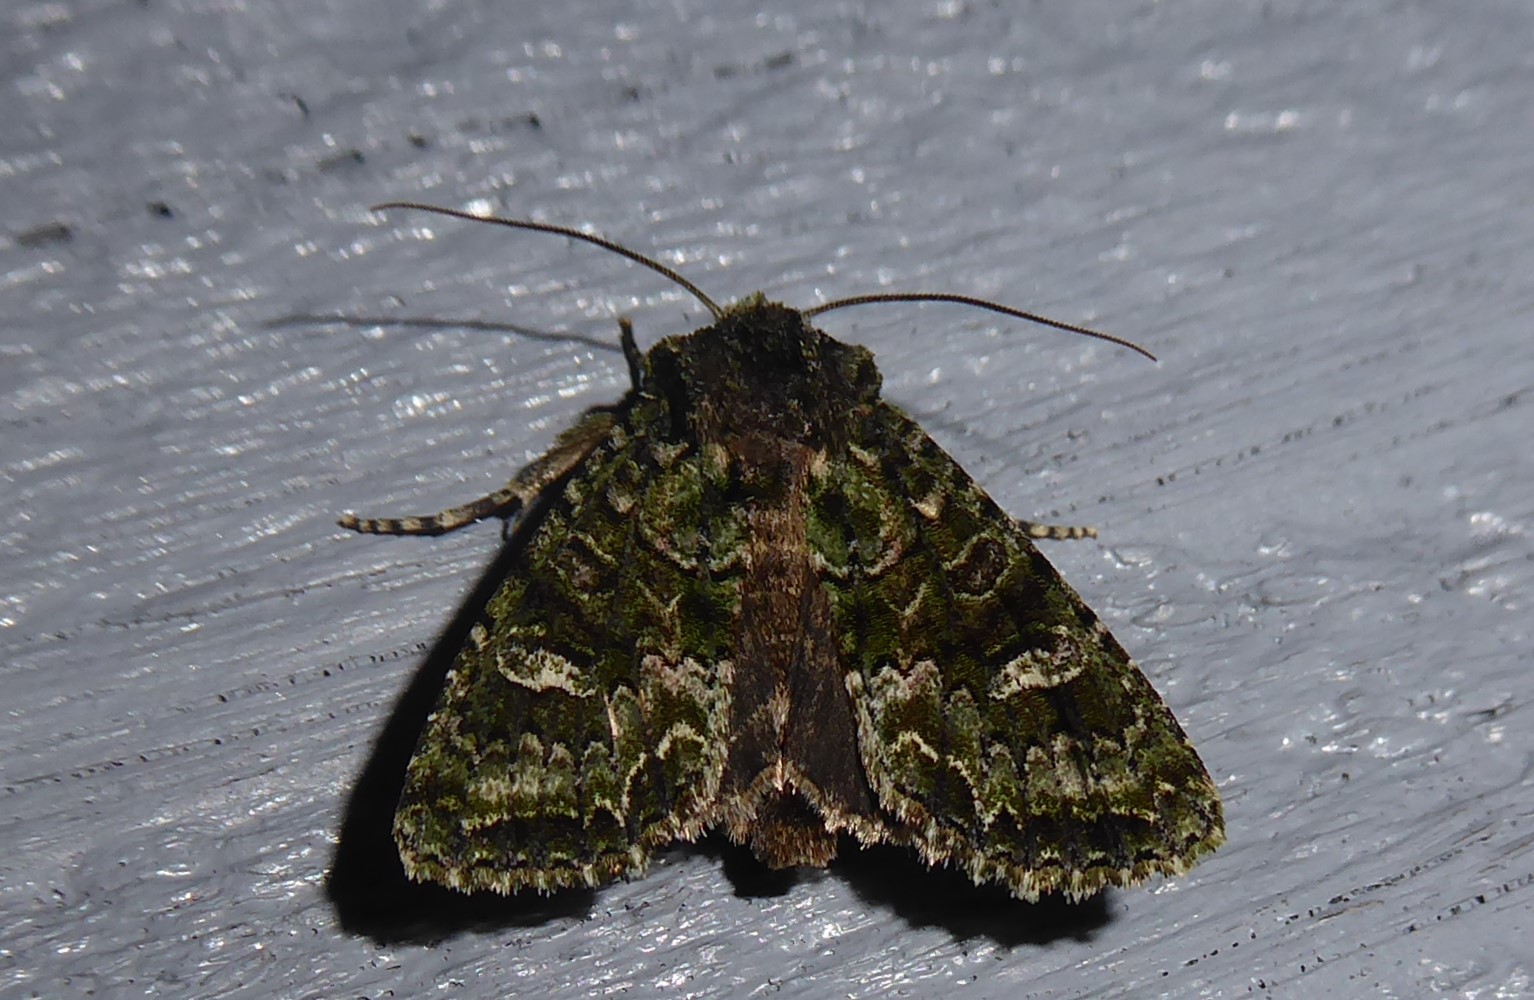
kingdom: Animalia
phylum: Arthropoda
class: Insecta
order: Lepidoptera
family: Noctuidae
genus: Ichneutica
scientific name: Ichneutica
